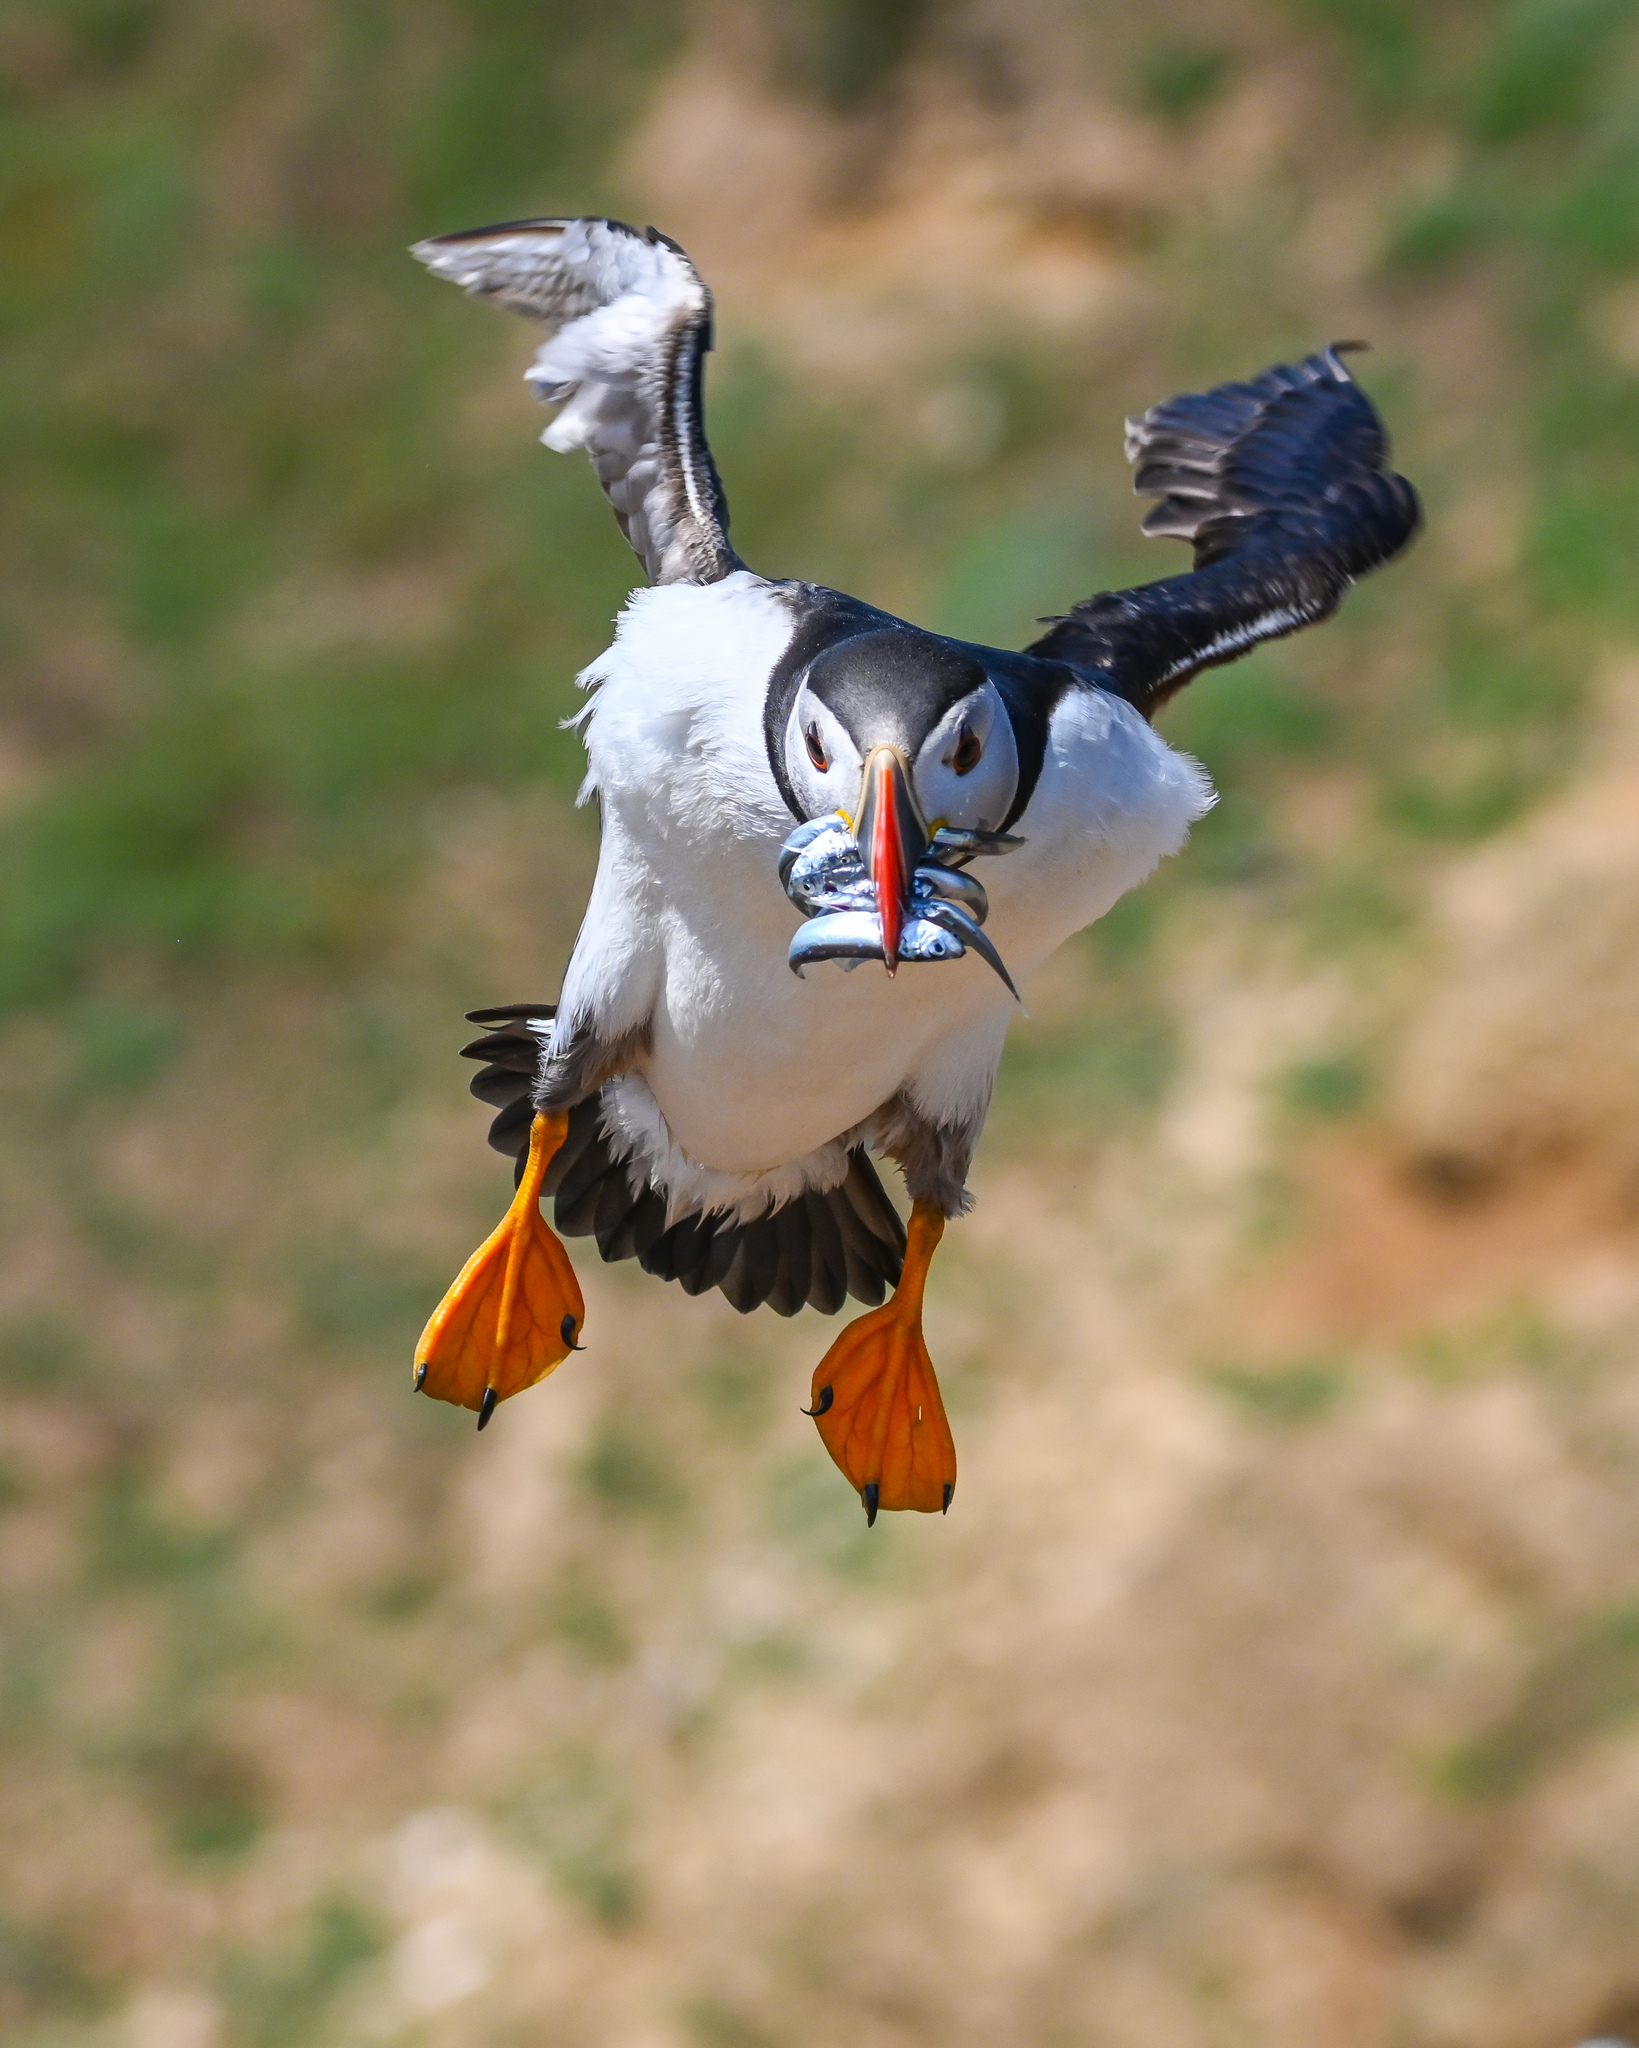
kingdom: Animalia
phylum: Chordata
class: Aves
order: Charadriiformes
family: Alcidae
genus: Fratercula
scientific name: Fratercula arctica
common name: Atlantic puffin
